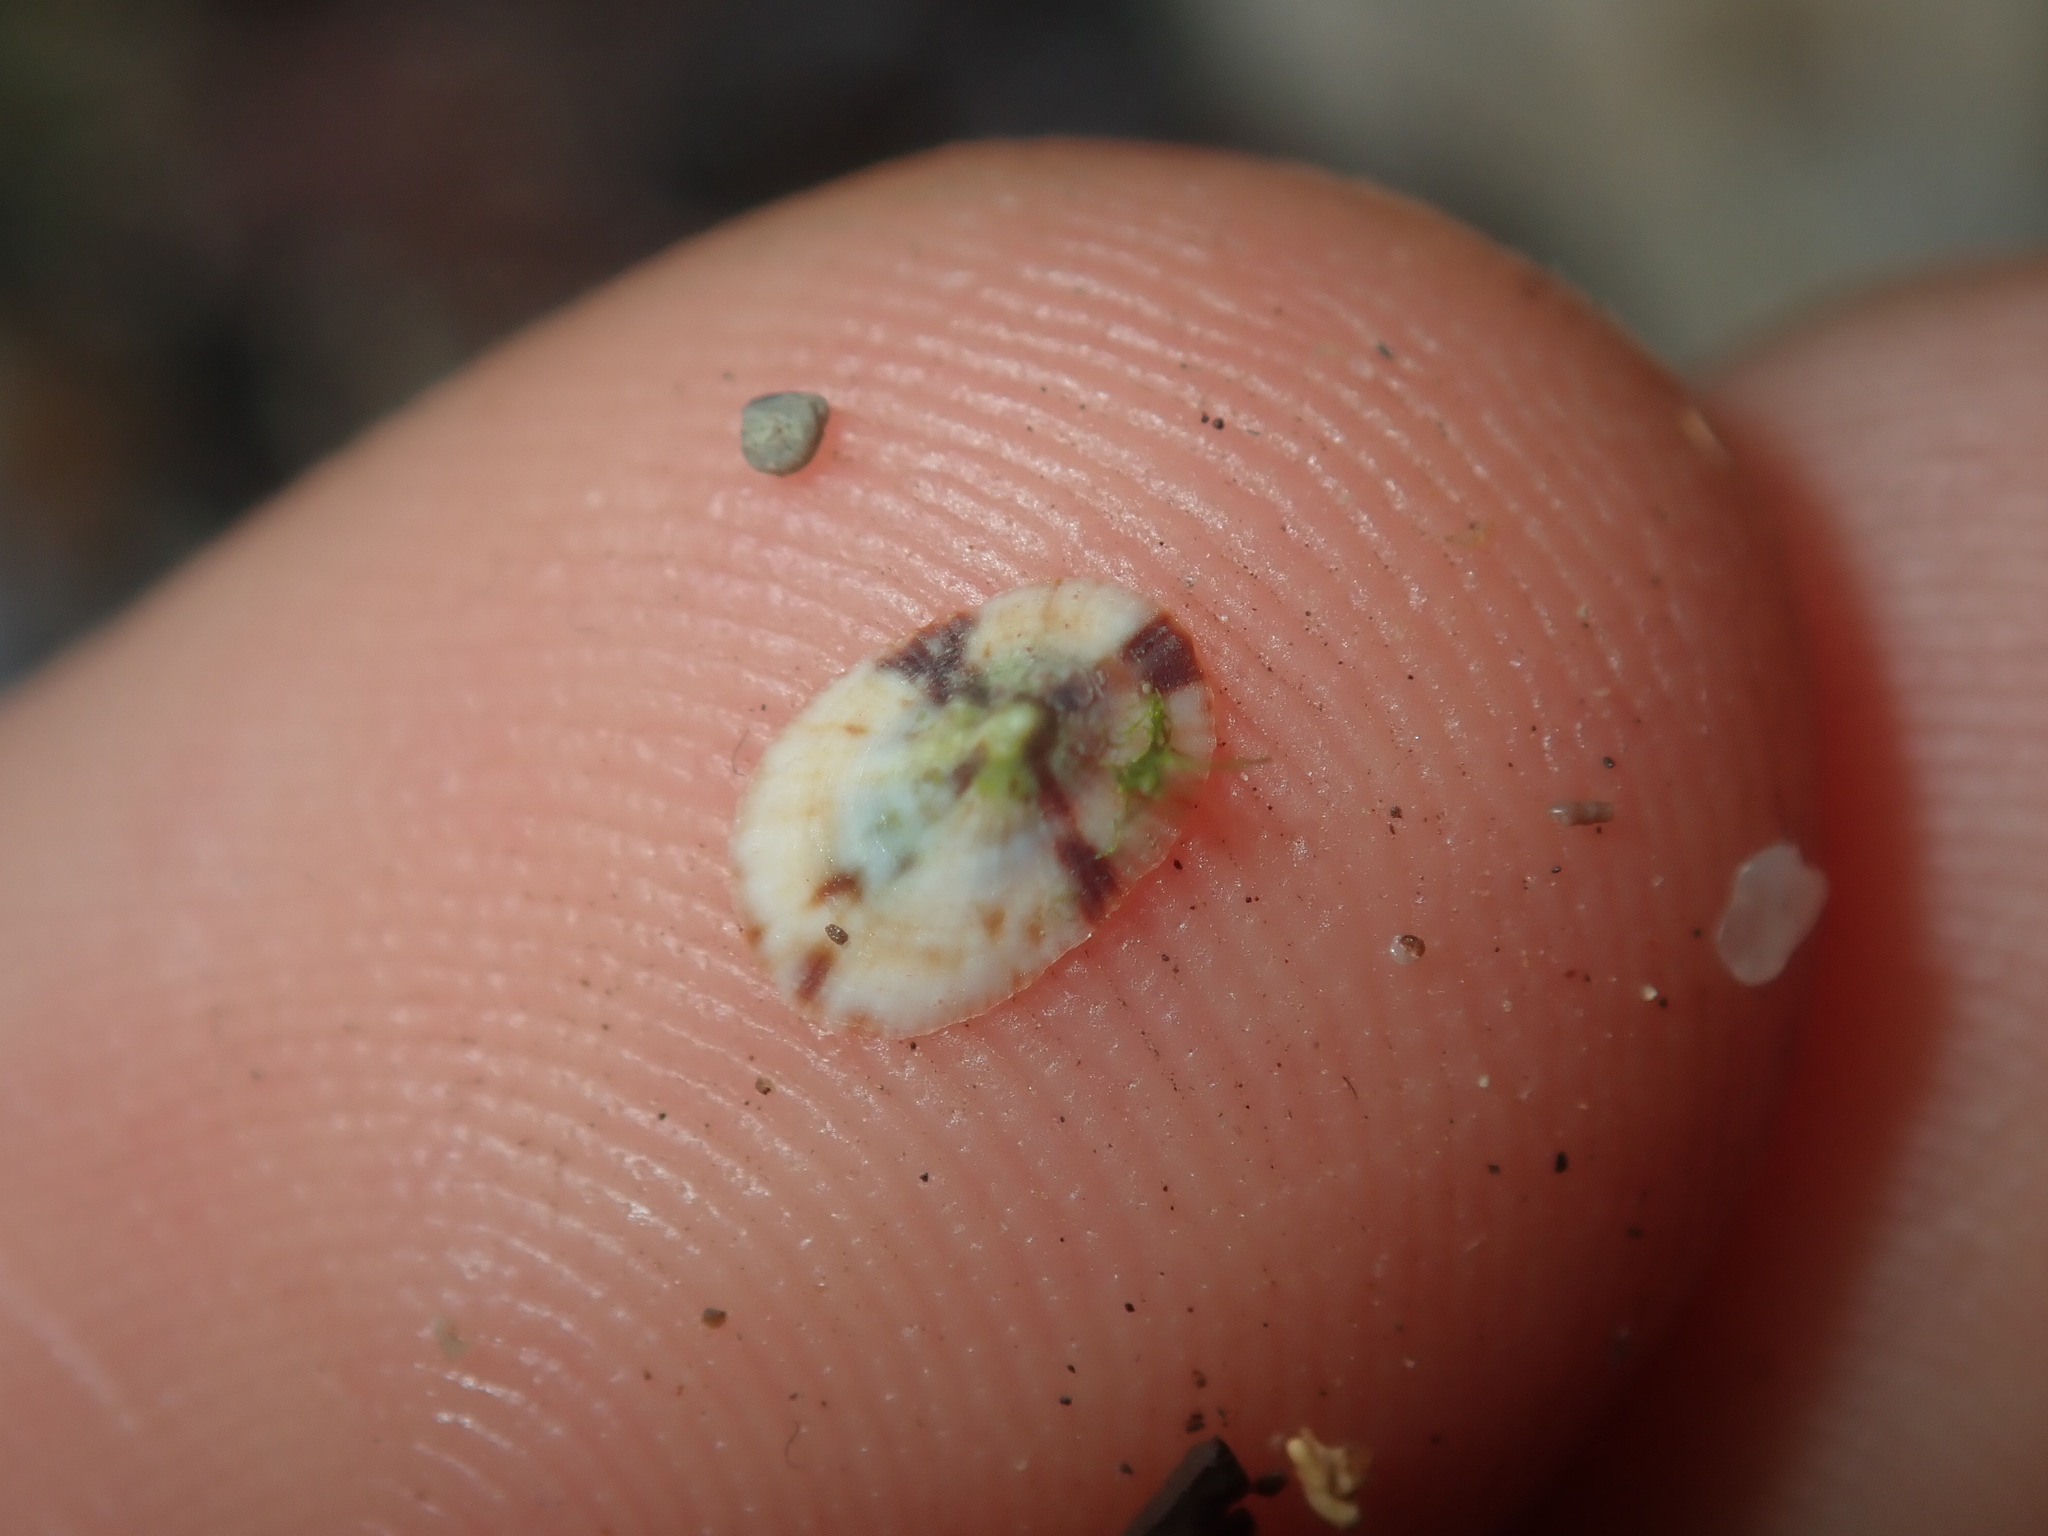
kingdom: Animalia
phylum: Mollusca
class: Gastropoda
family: Lottiidae
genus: Patelloida
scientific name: Patelloida mufria
